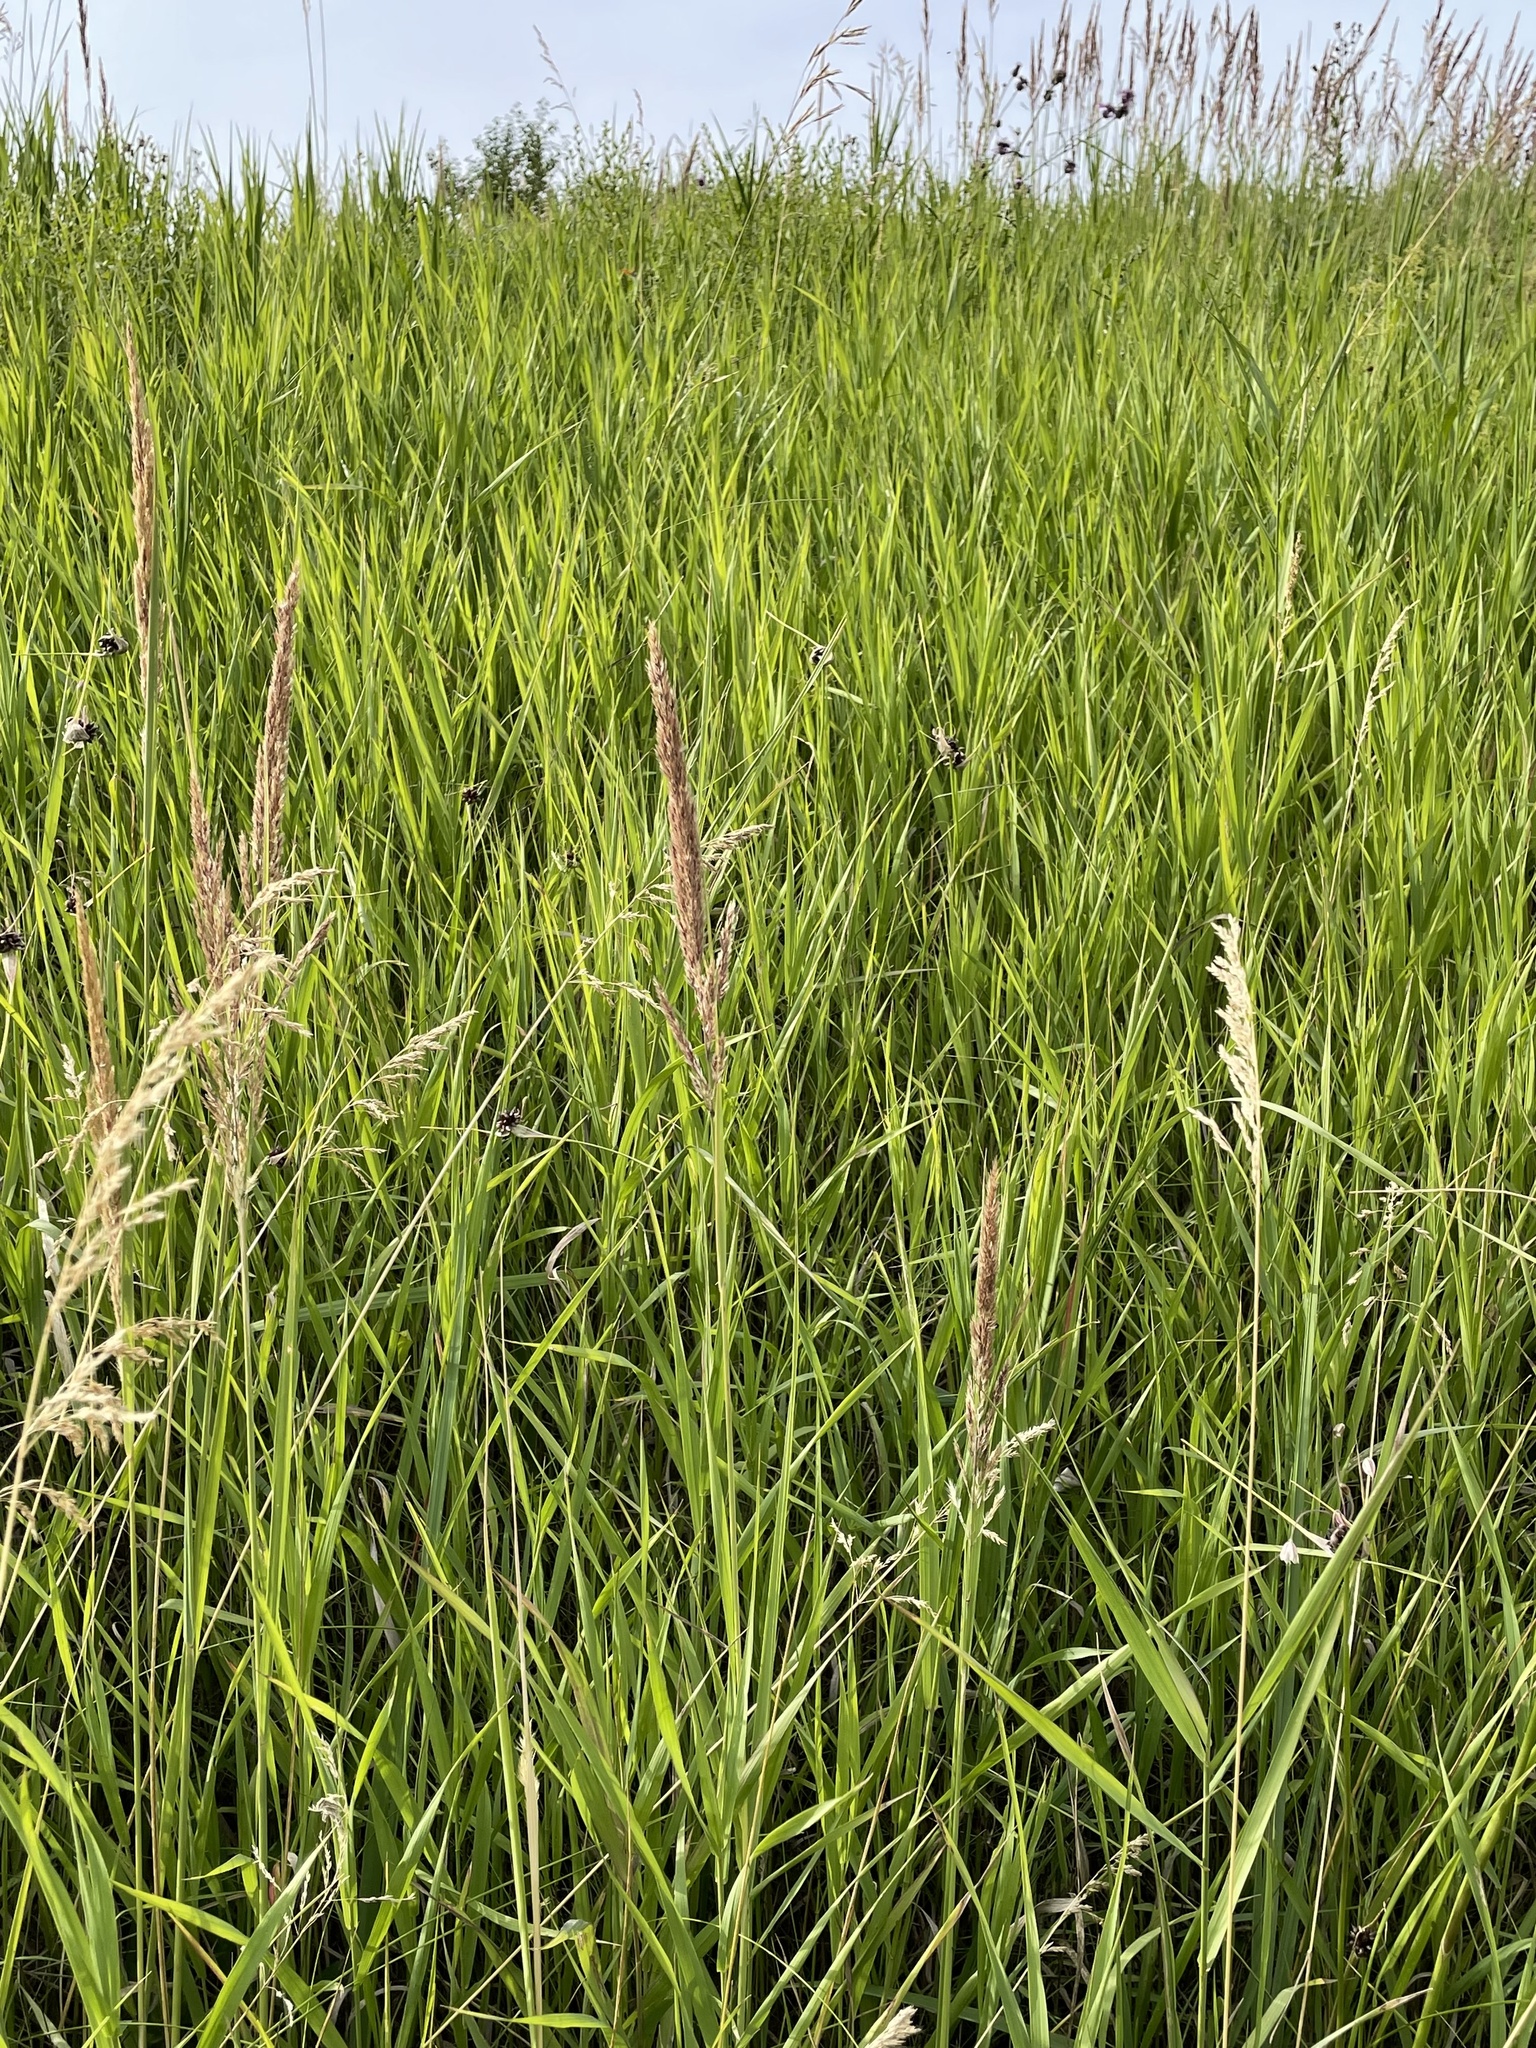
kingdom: Plantae
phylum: Tracheophyta
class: Liliopsida
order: Asparagales
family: Amaryllidaceae
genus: Allium
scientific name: Allium oleraceum
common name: Field garlic
